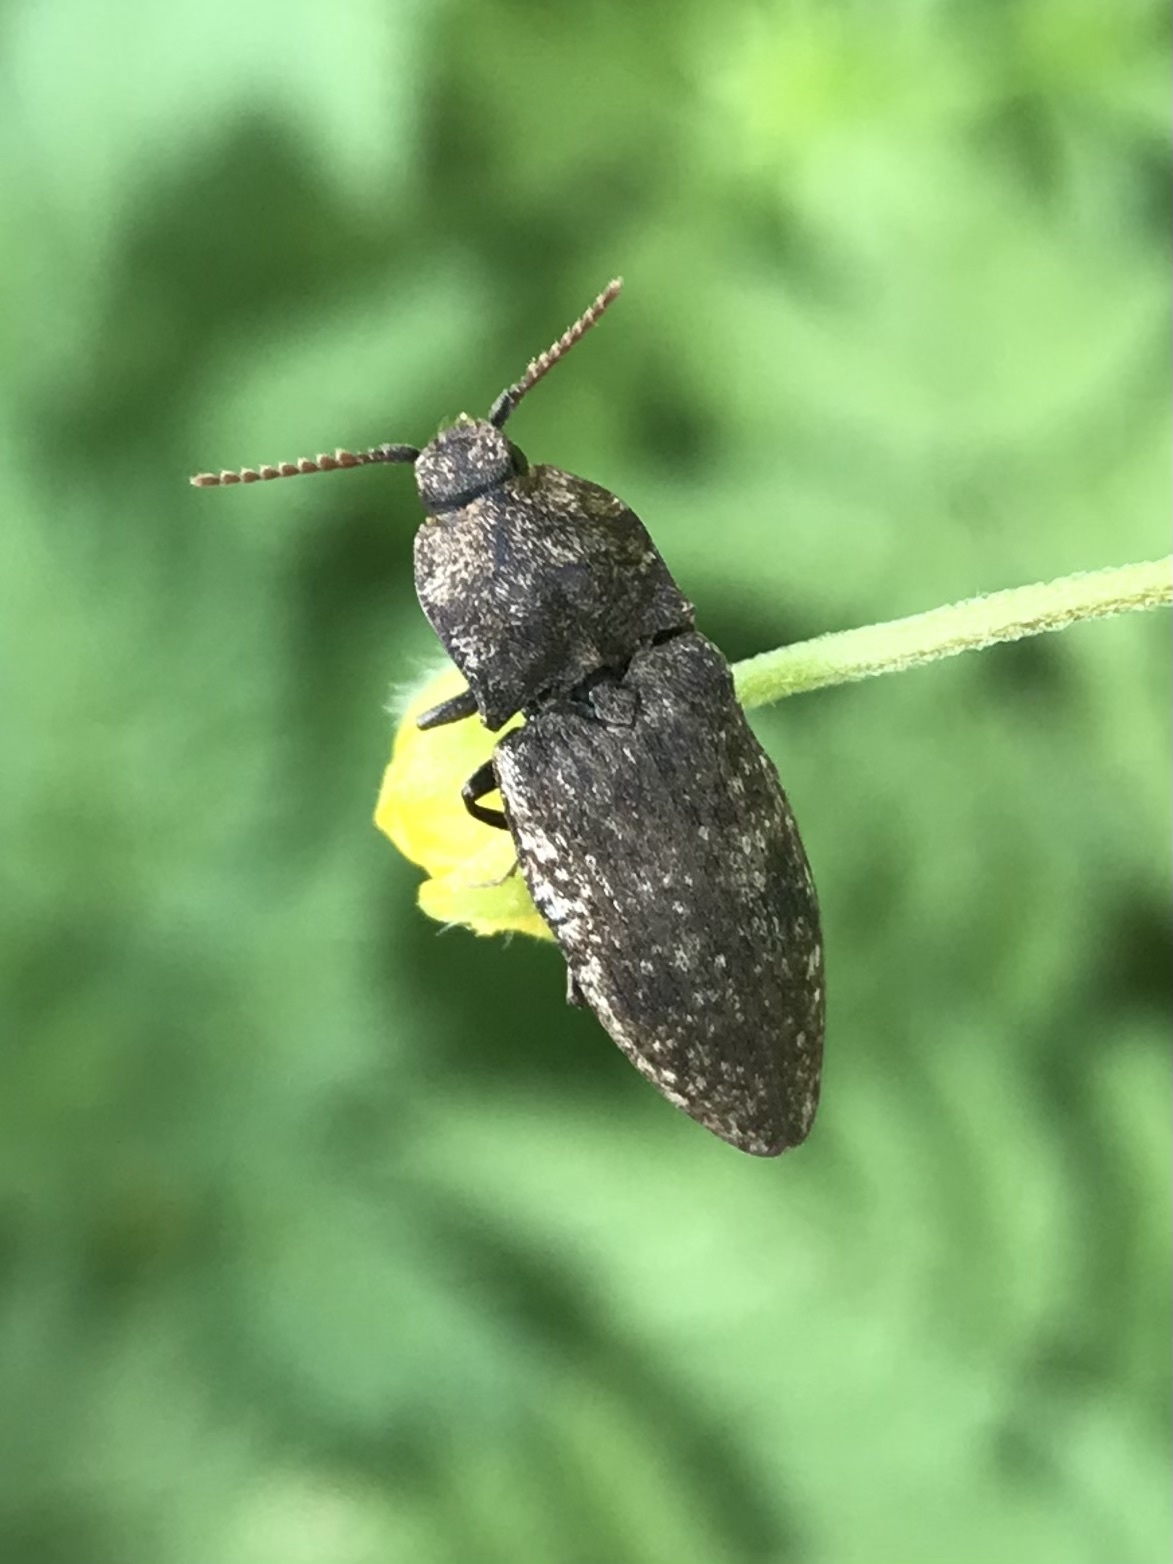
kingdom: Animalia
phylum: Arthropoda
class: Insecta
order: Coleoptera
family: Elateridae
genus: Agrypnus
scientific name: Agrypnus murinus
